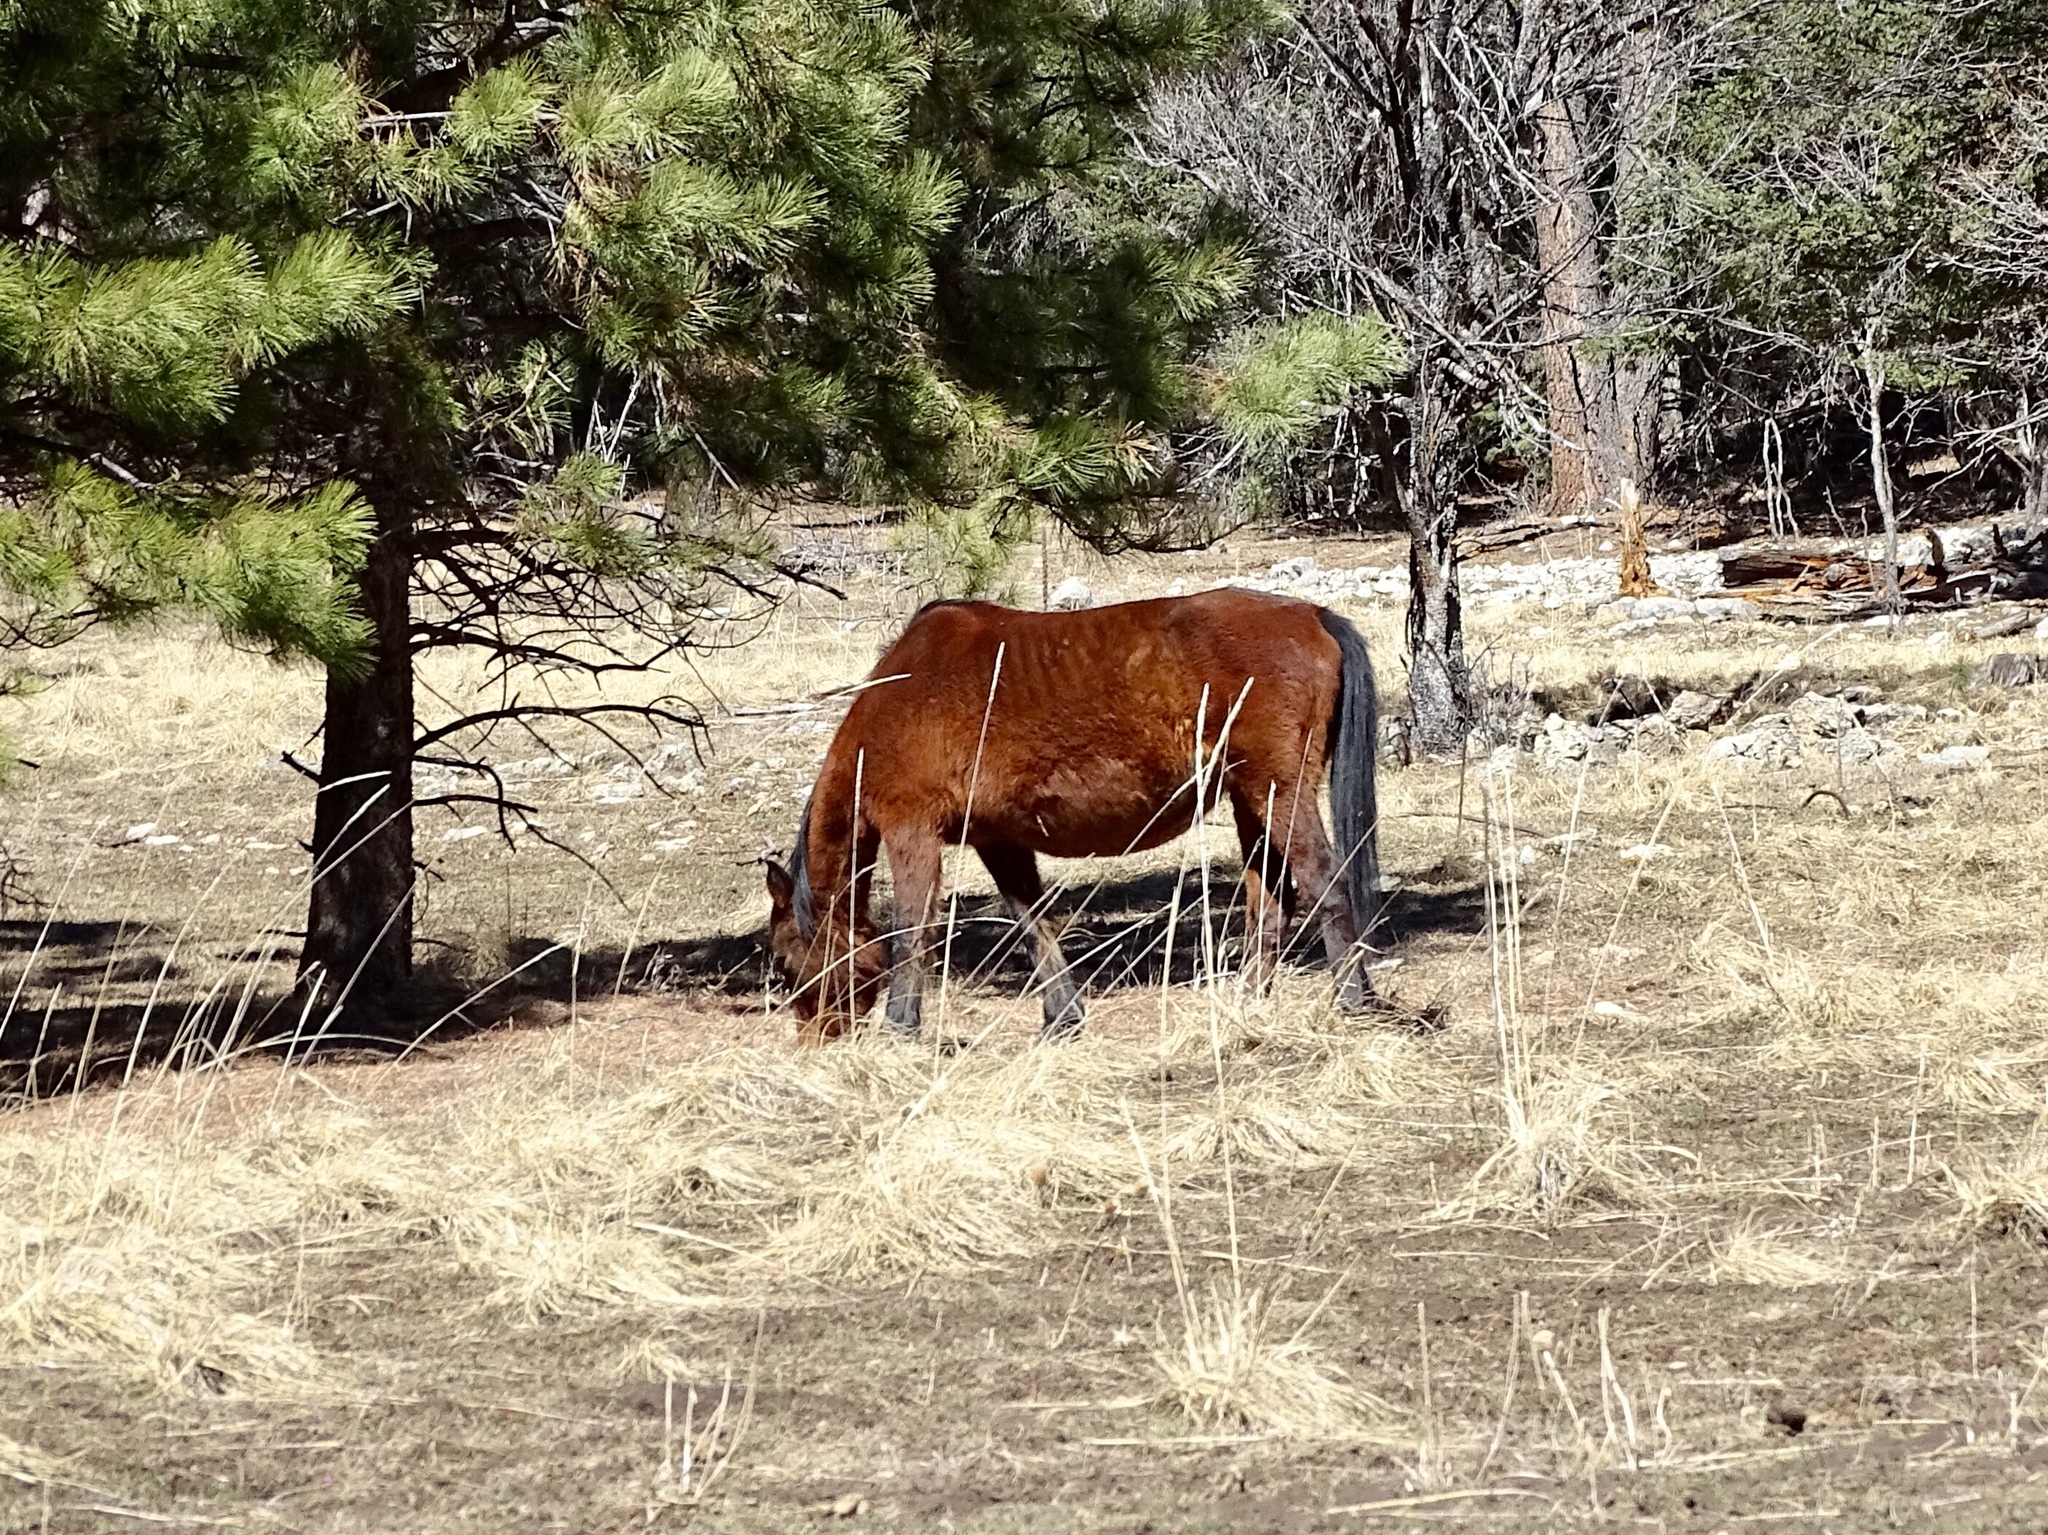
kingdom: Animalia
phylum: Chordata
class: Mammalia
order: Perissodactyla
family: Equidae
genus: Equus
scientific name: Equus caballus
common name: Horse
